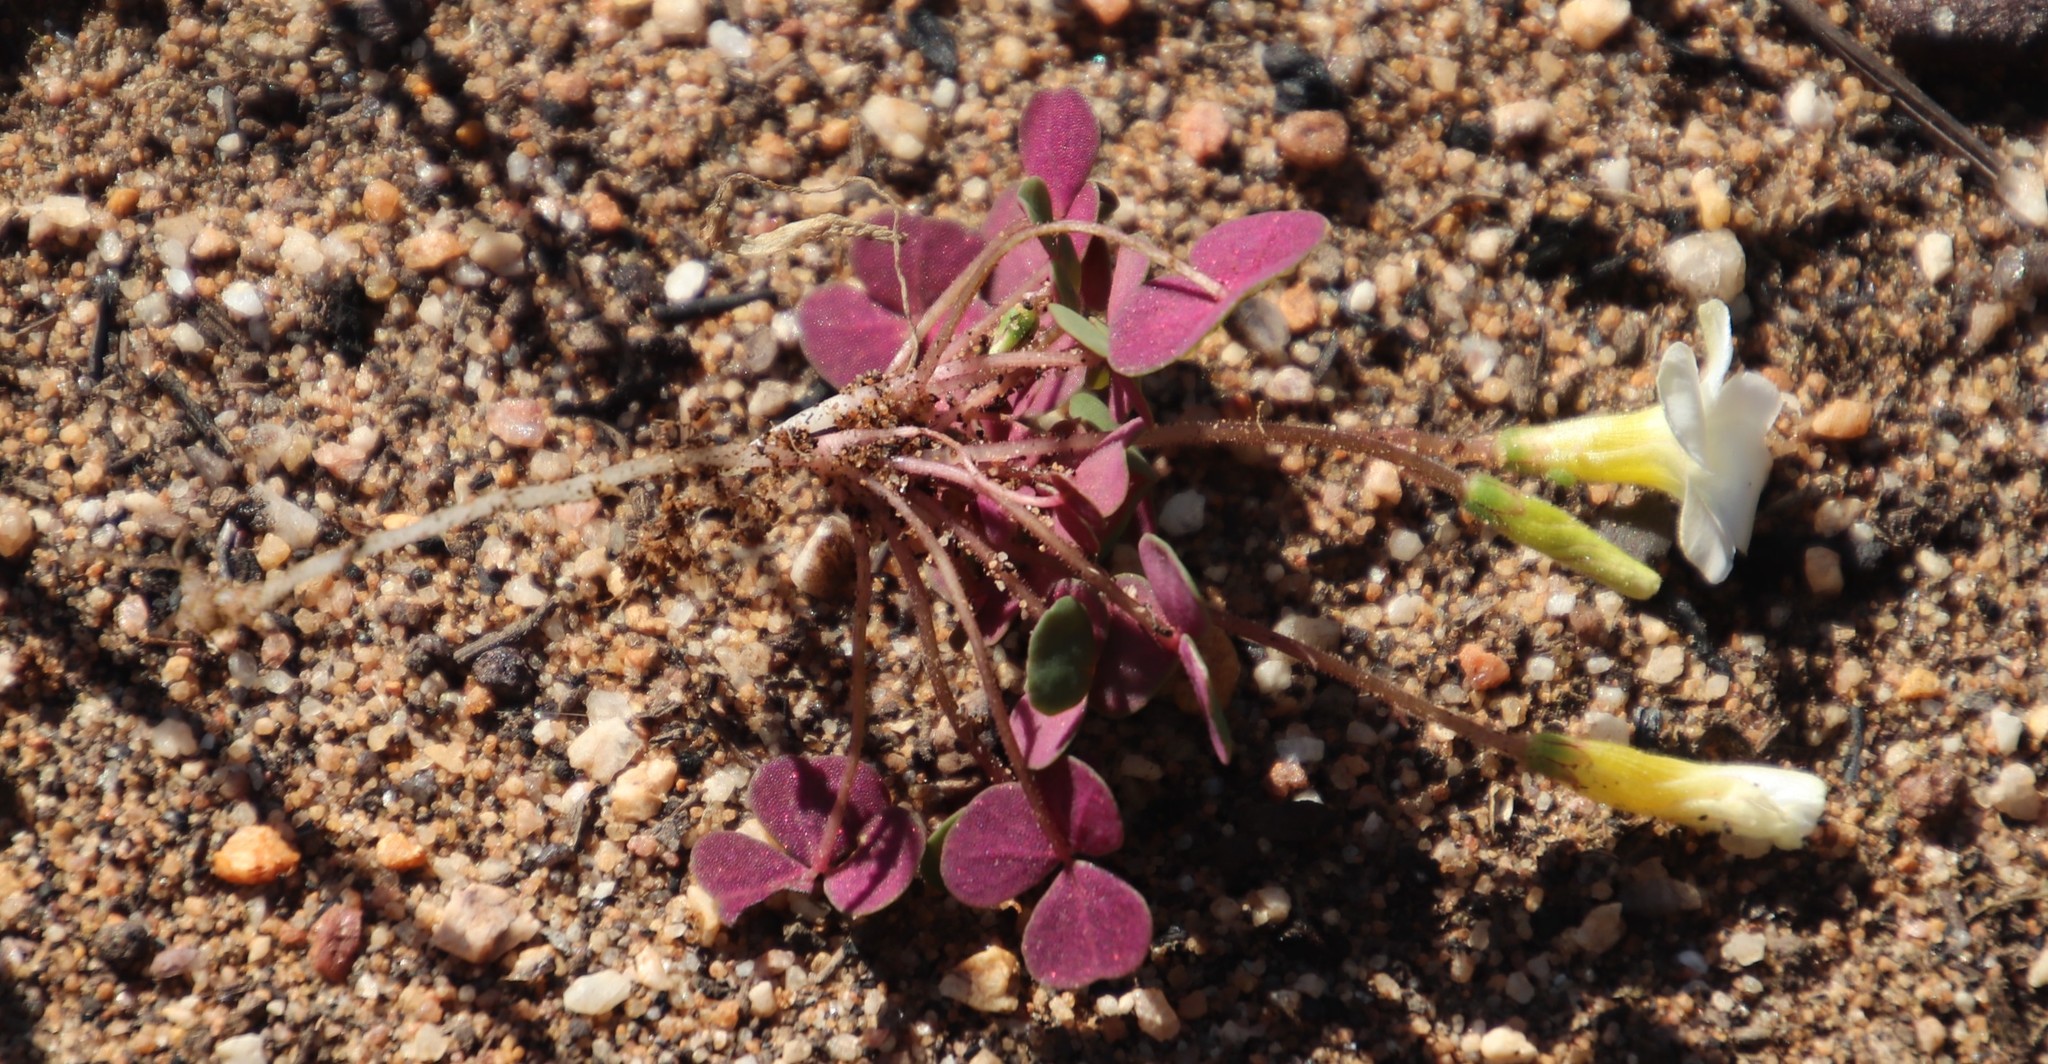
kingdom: Plantae
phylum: Tracheophyta
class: Magnoliopsida
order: Oxalidales
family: Oxalidaceae
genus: Oxalis
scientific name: Oxalis punctata
